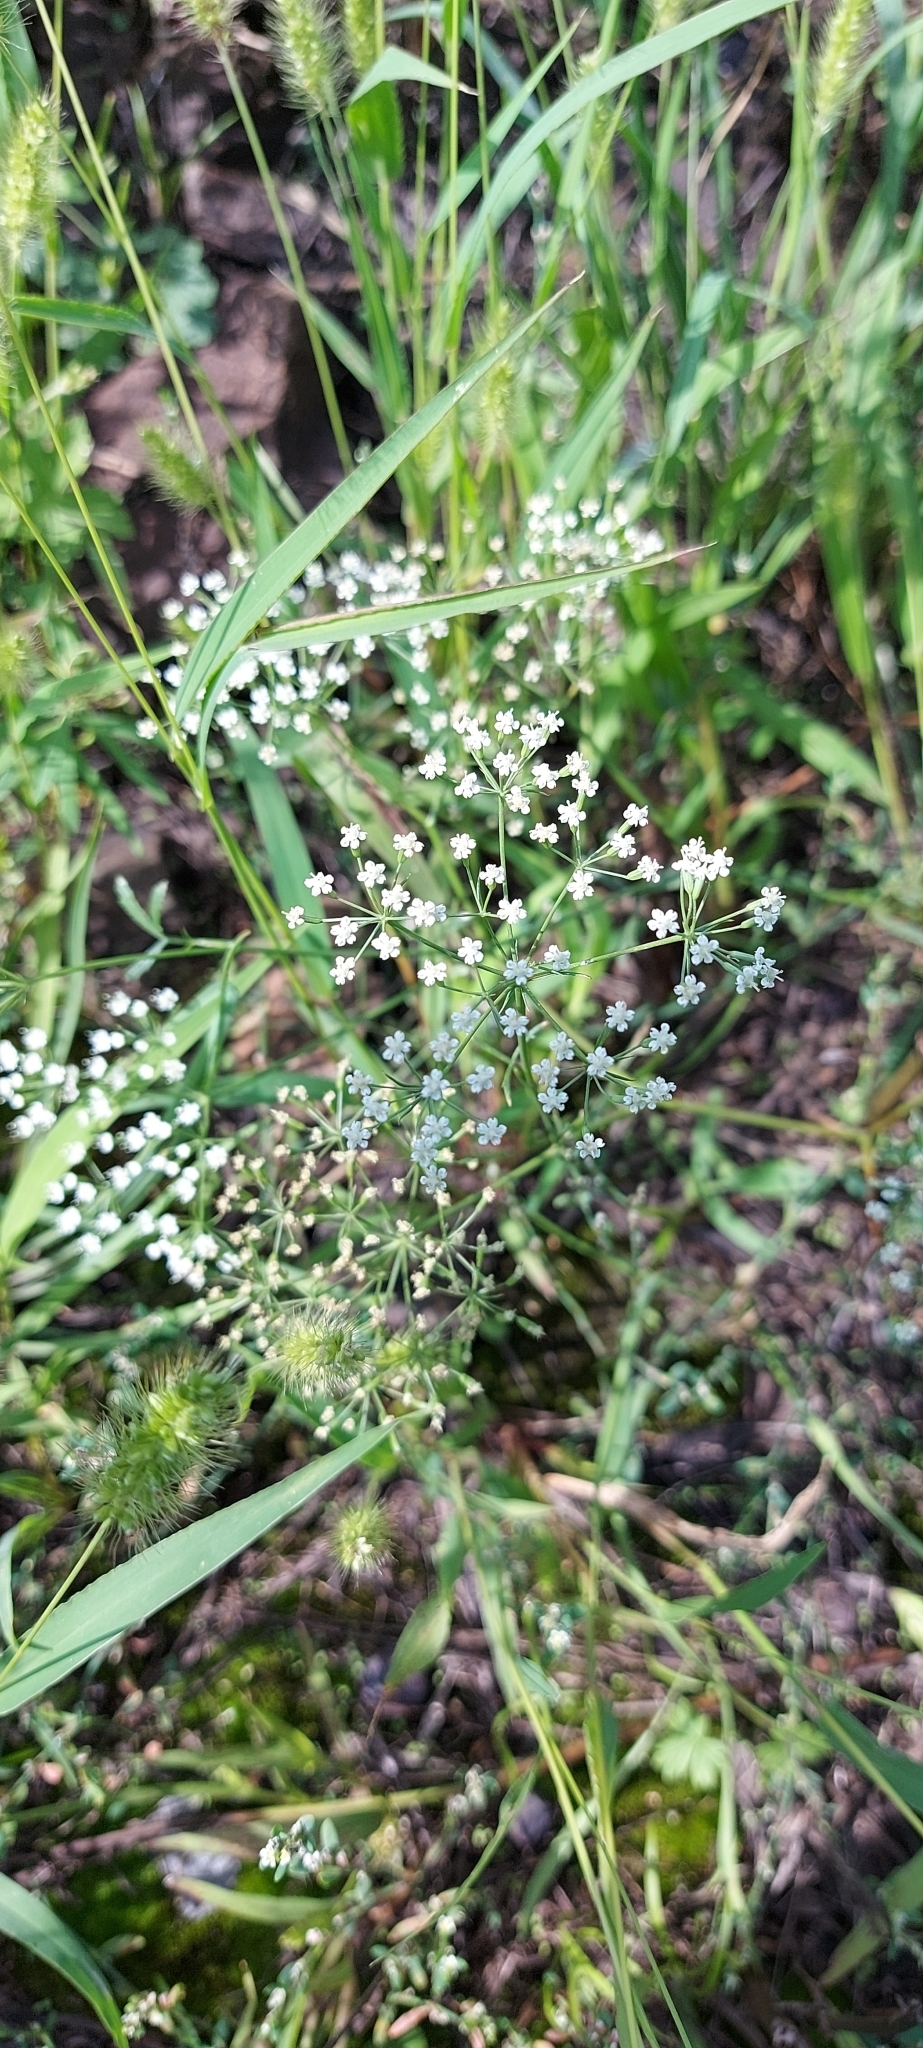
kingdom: Plantae
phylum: Tracheophyta
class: Magnoliopsida
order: Apiales
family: Apiaceae
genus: Falcaria
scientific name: Falcaria vulgaris
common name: Longleaf
